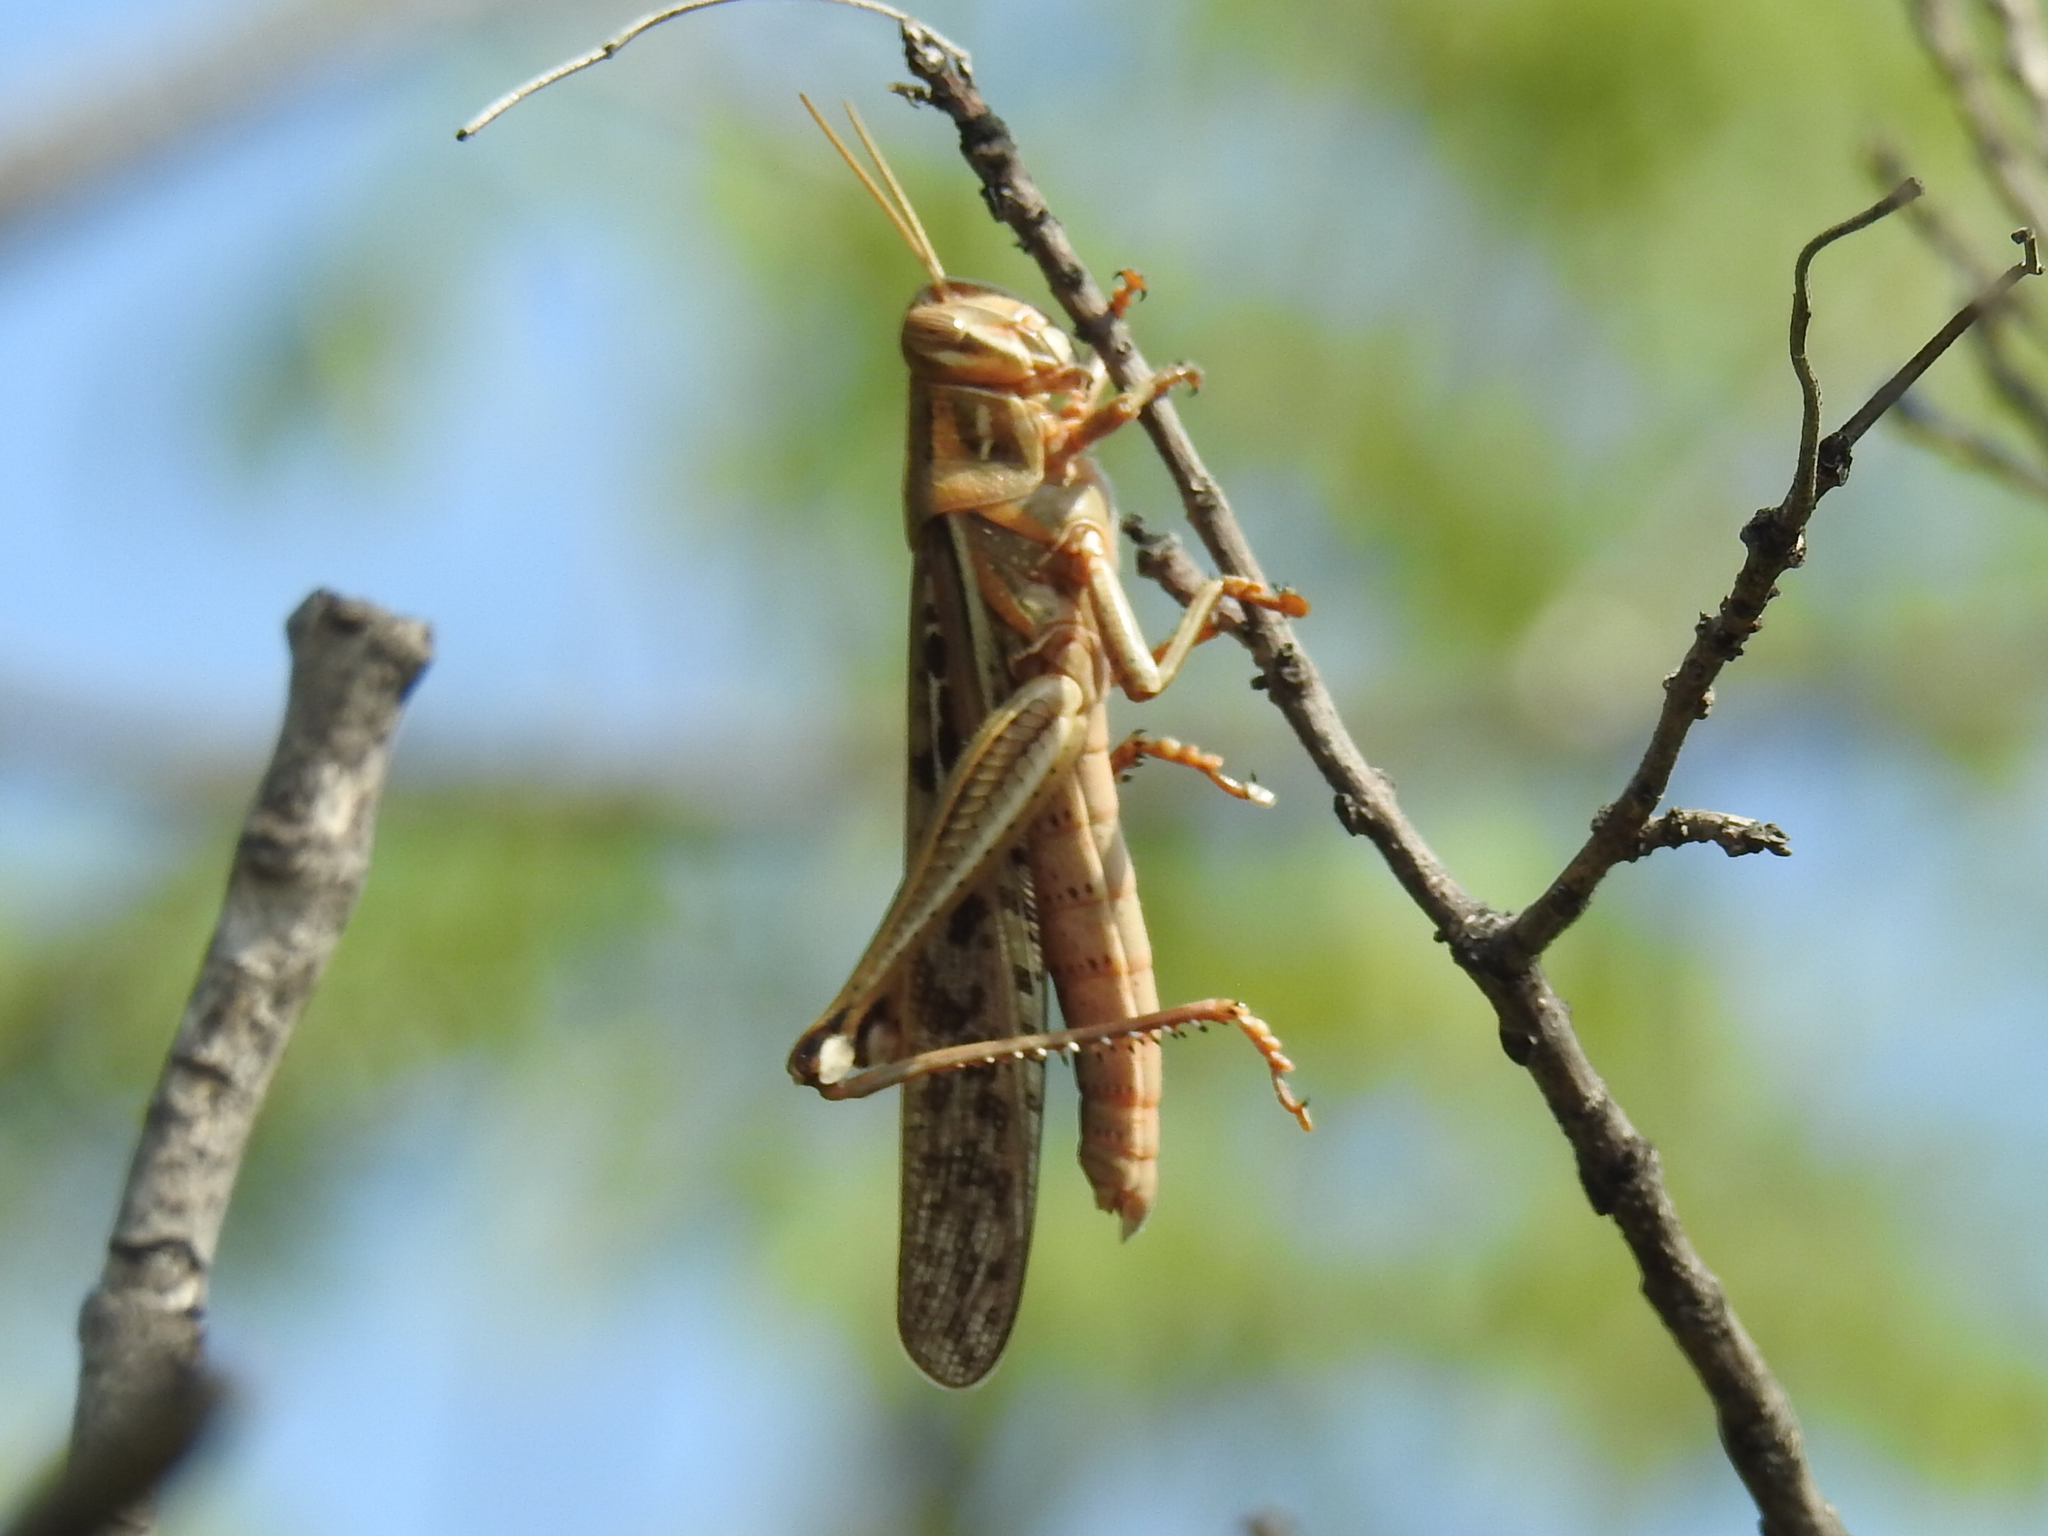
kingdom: Animalia
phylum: Arthropoda
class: Insecta
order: Orthoptera
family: Acrididae
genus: Schistocerca
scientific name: Schistocerca americana
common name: American bird locust
